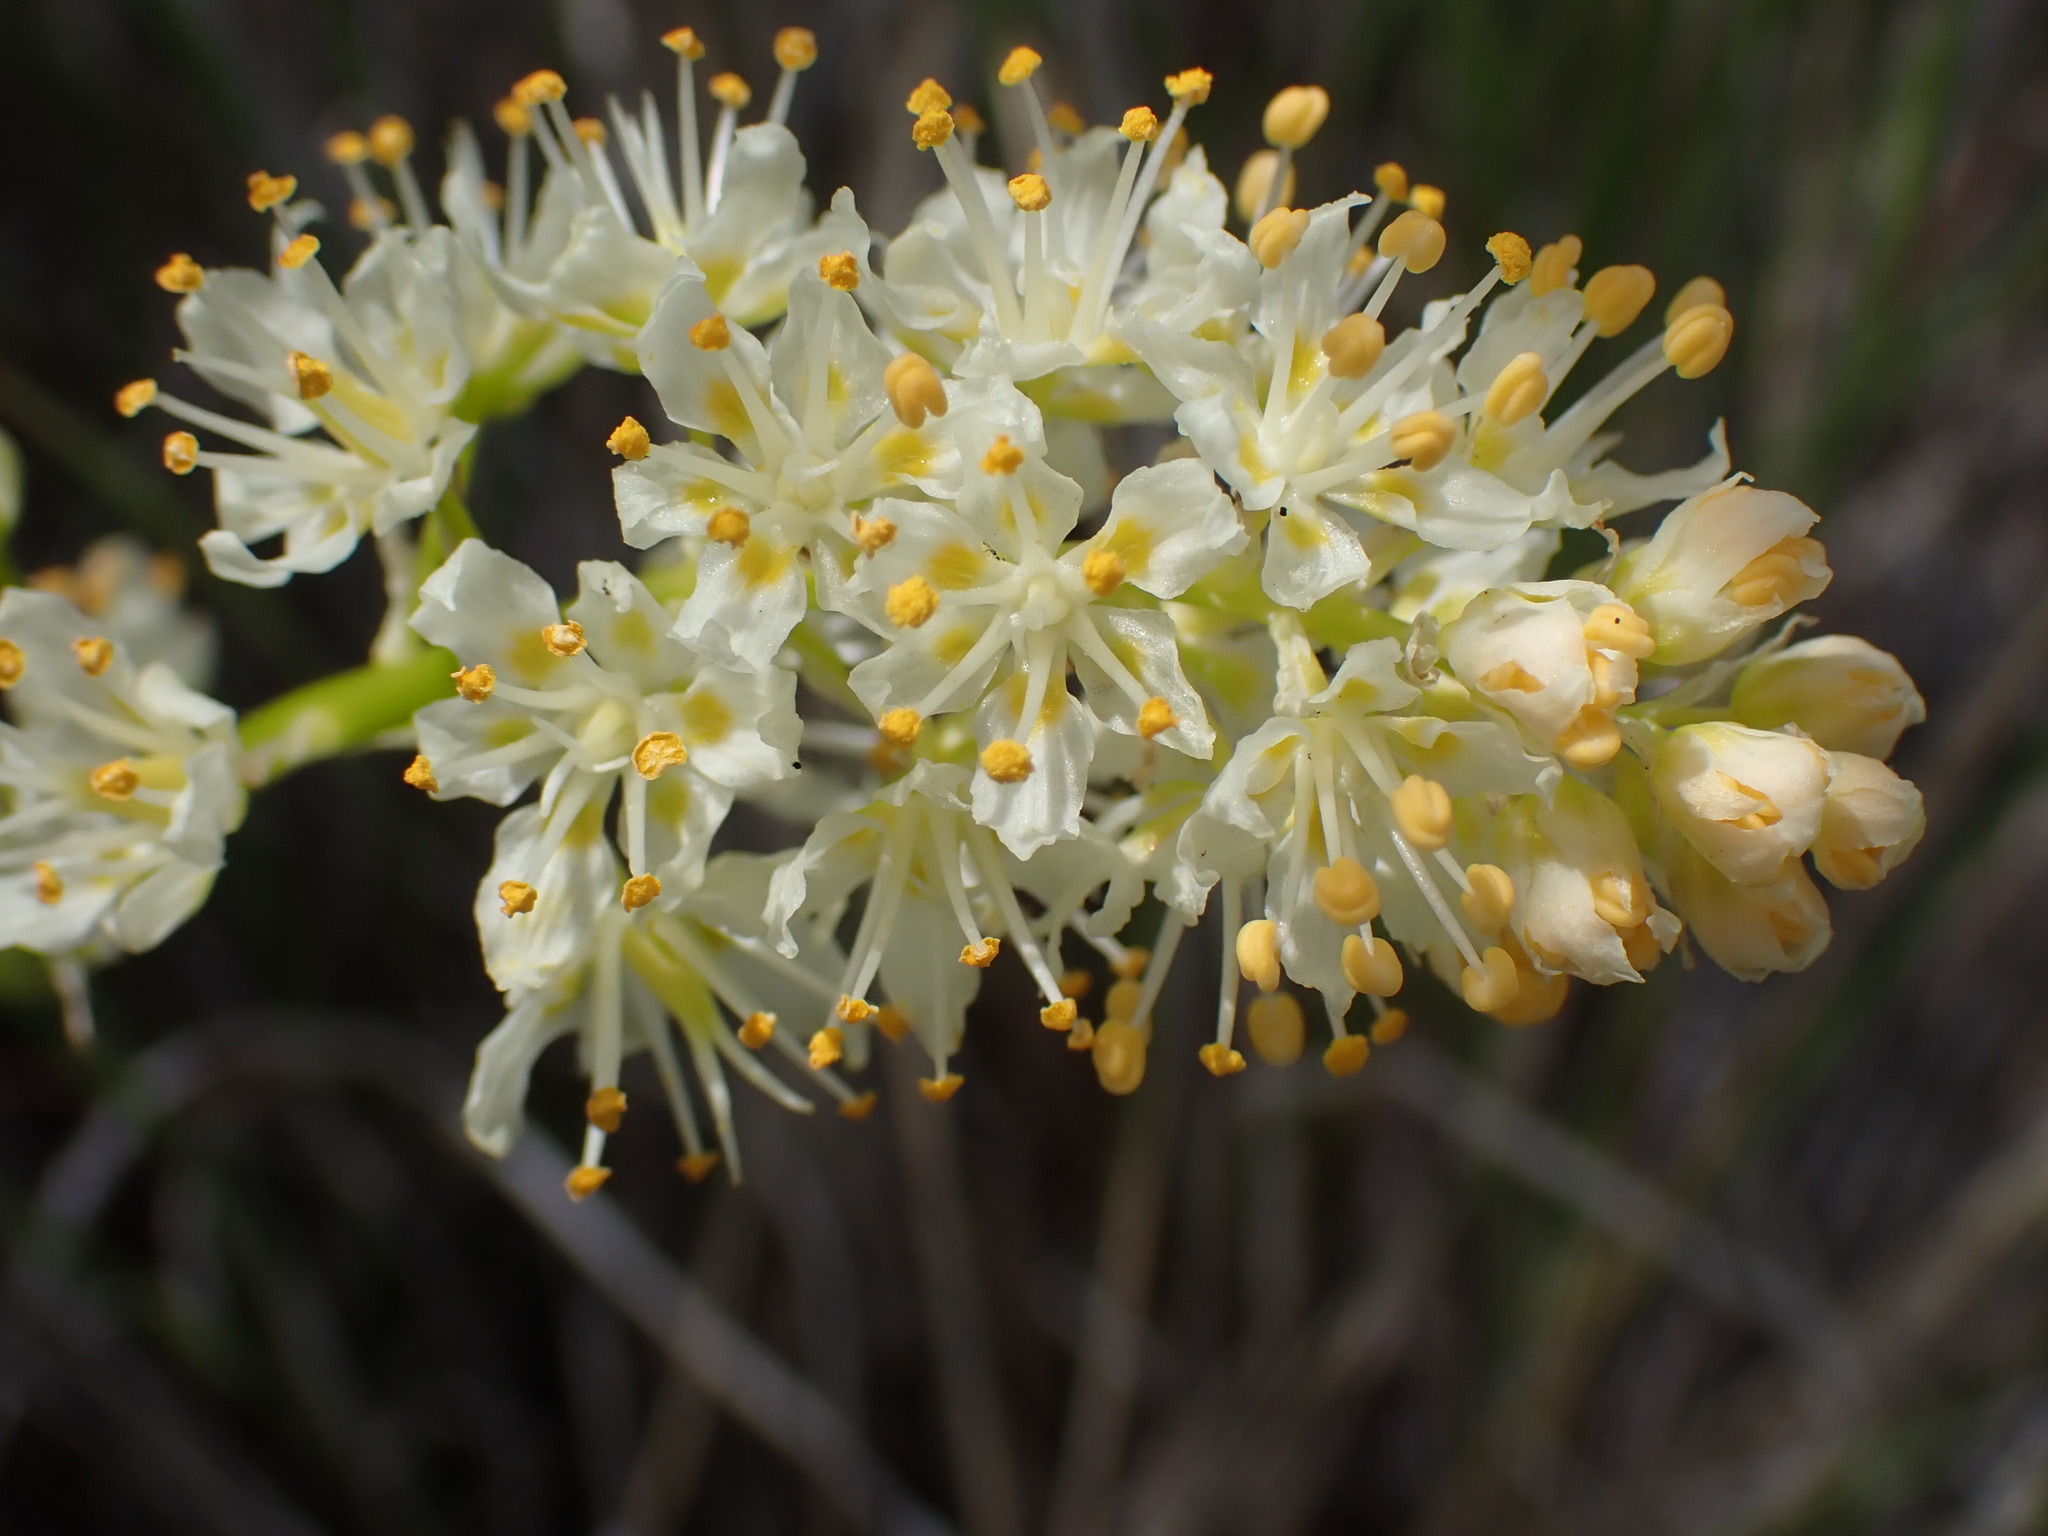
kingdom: Plantae
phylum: Tracheophyta
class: Liliopsida
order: Liliales
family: Melanthiaceae
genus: Toxicoscordion
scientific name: Toxicoscordion venenosum
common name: Meadow death camas
